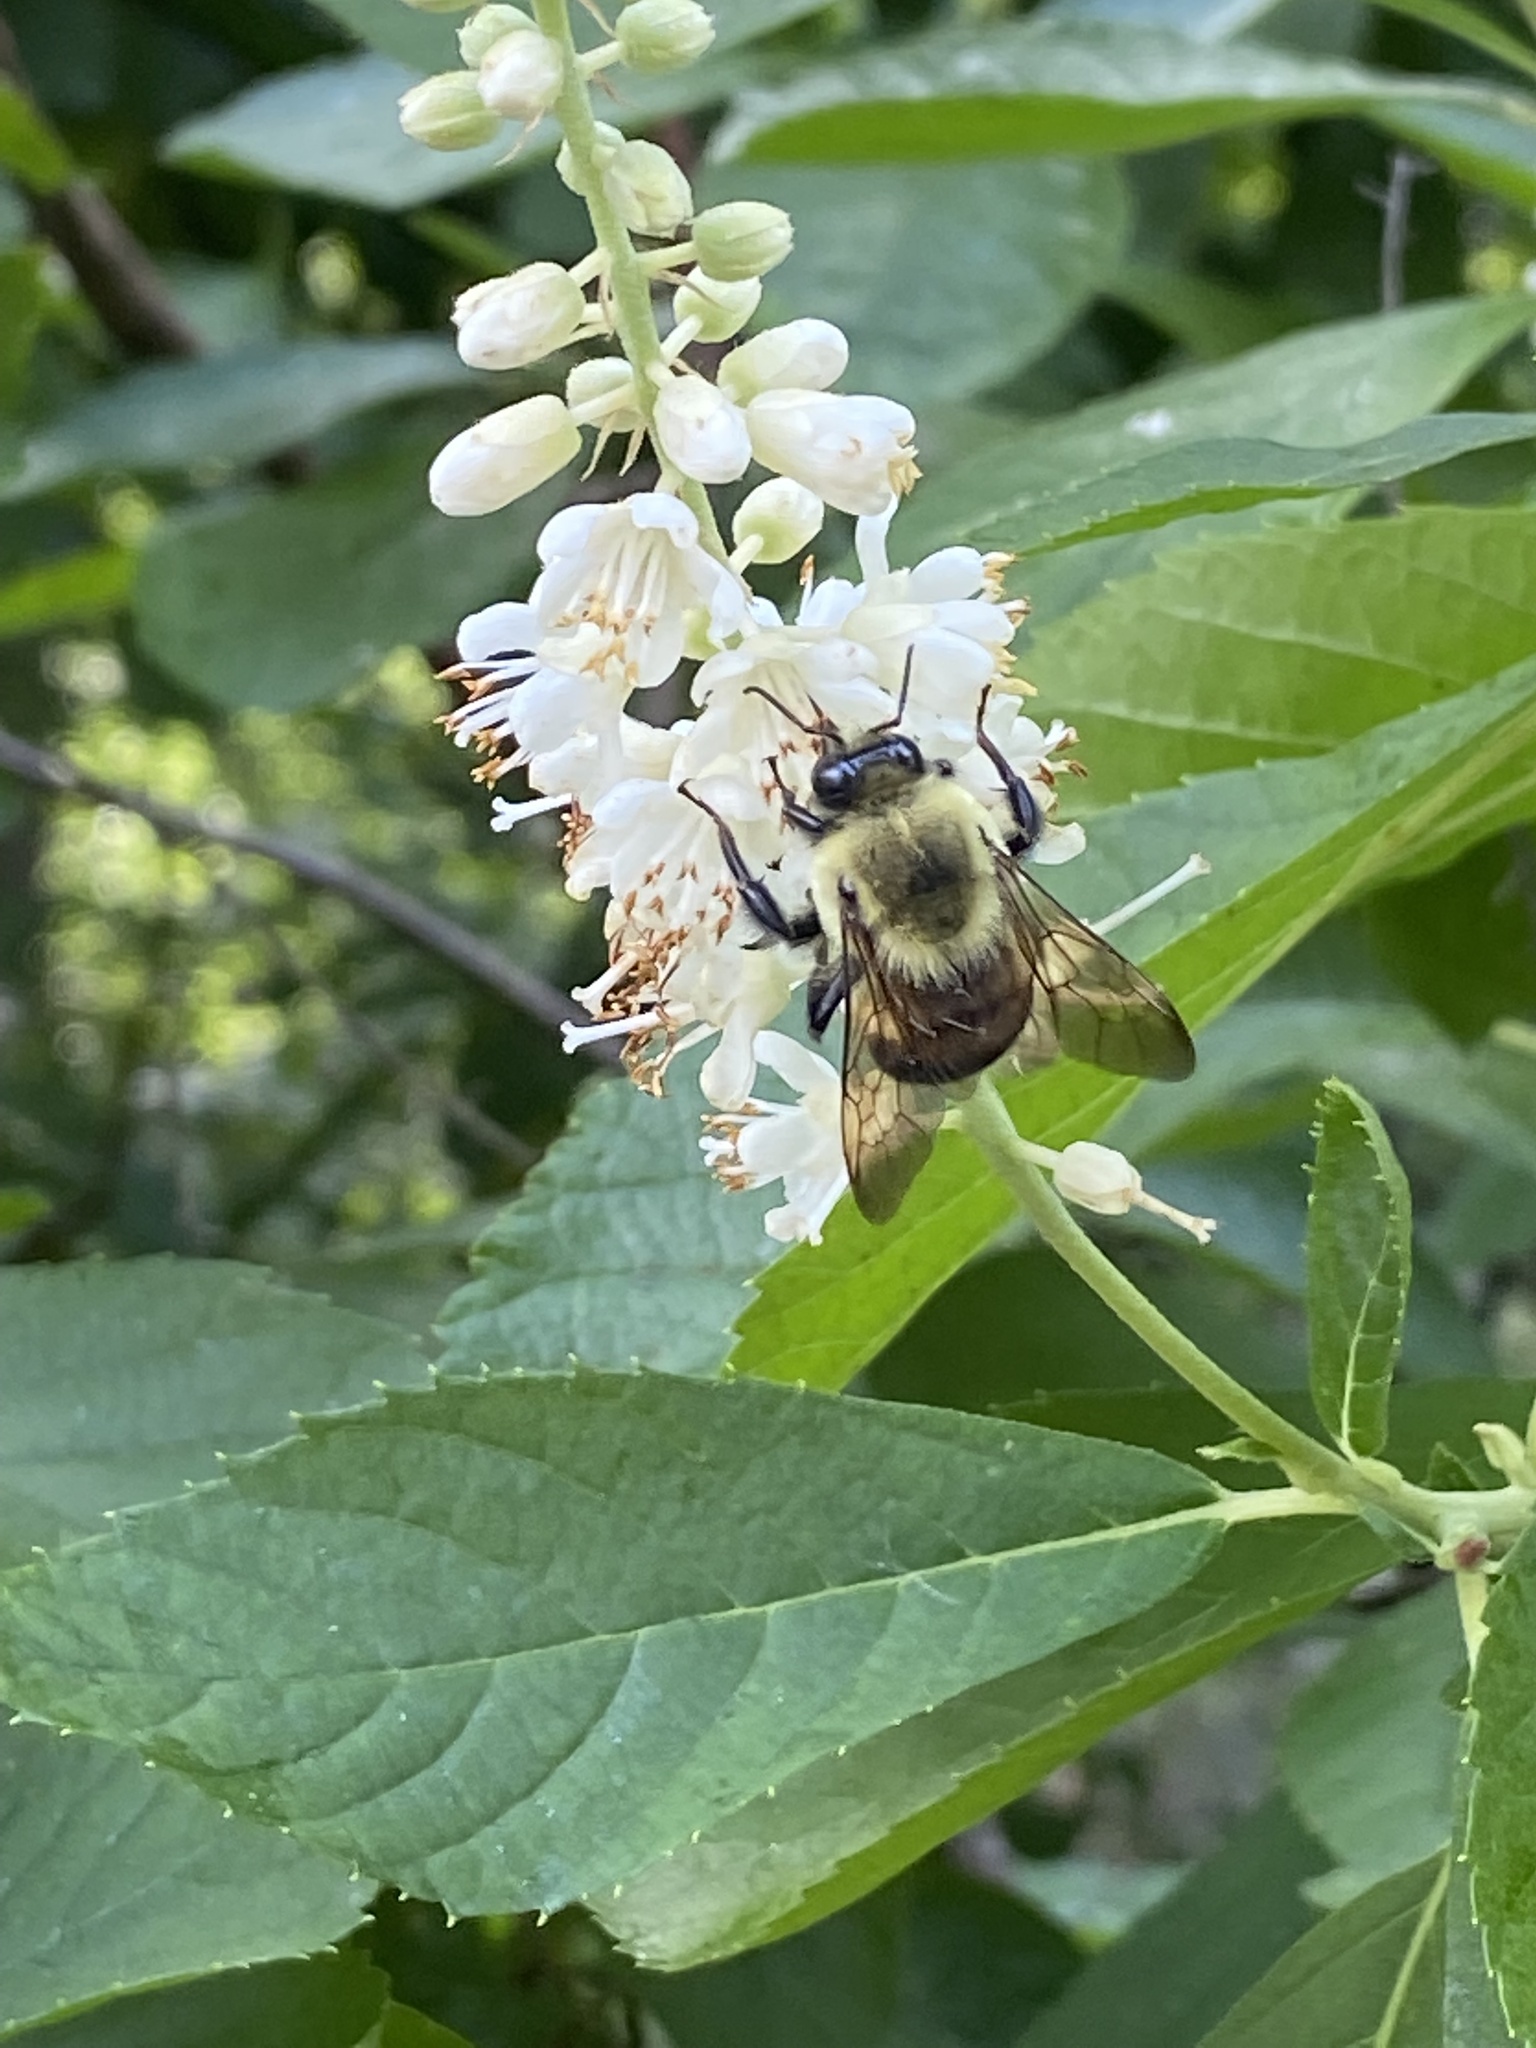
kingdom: Animalia
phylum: Arthropoda
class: Insecta
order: Hymenoptera
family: Apidae
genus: Bombus
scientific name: Bombus griseocollis
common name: Brown-belted bumble bee
